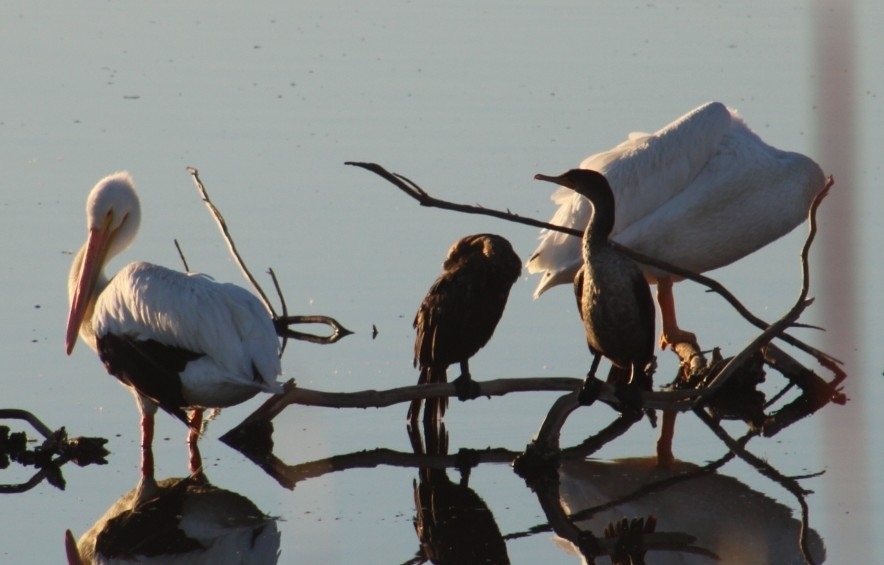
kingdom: Animalia
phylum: Chordata
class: Aves
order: Pelecaniformes
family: Pelecanidae
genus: Pelecanus
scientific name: Pelecanus erythrorhynchos
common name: American white pelican
